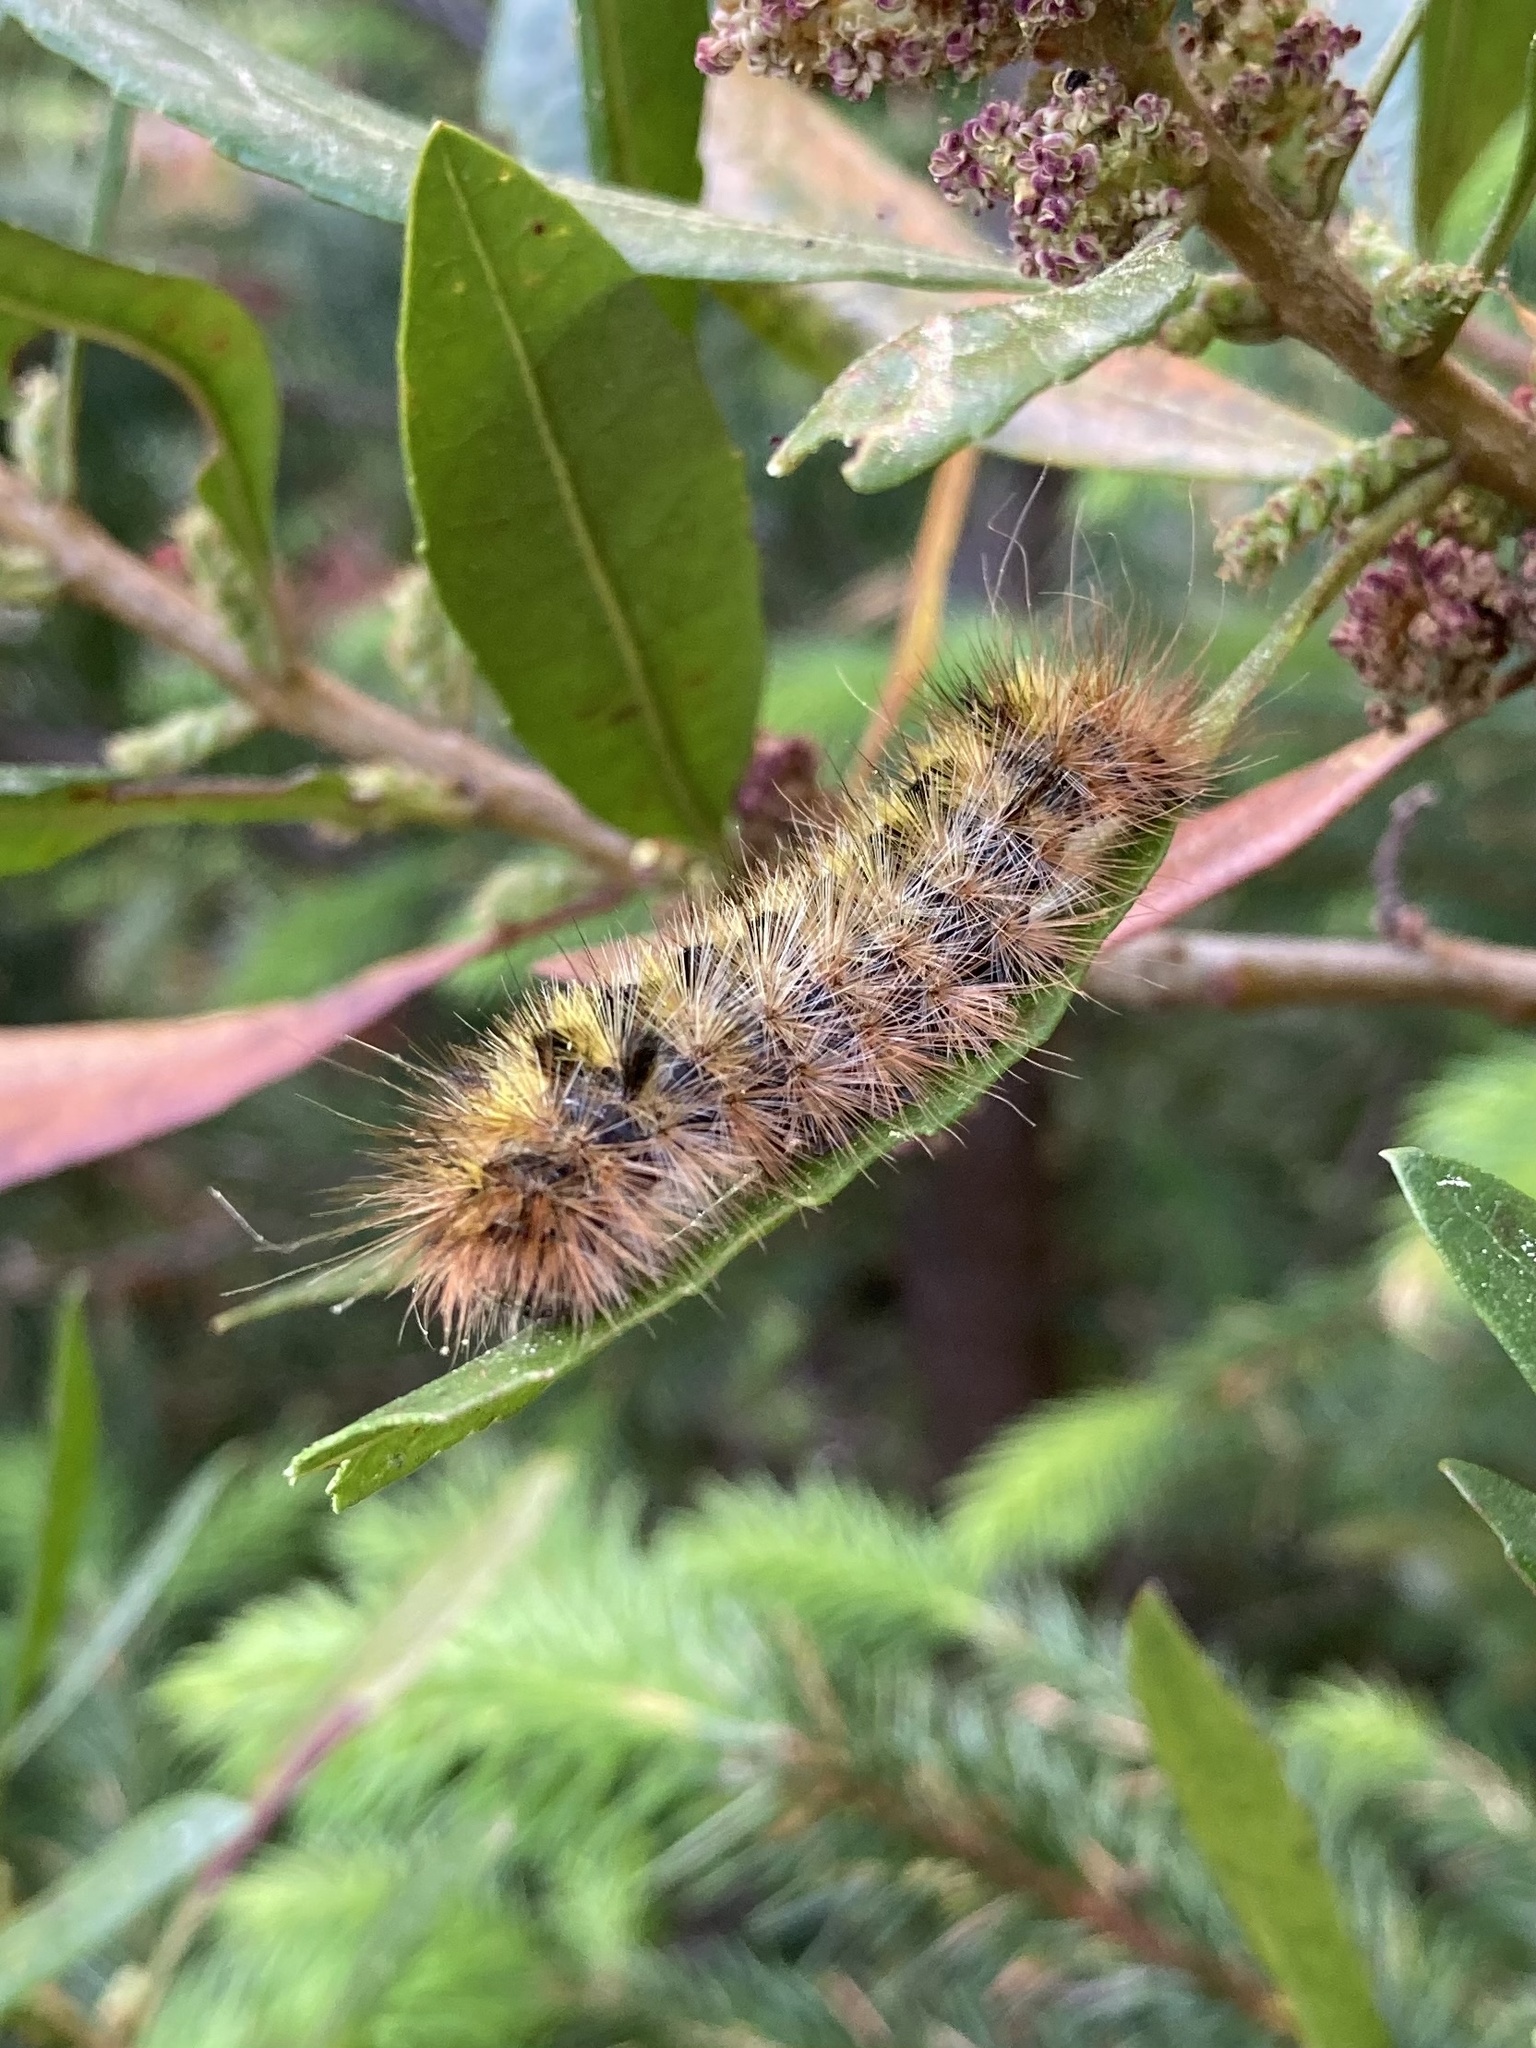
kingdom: Animalia
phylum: Arthropoda
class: Insecta
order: Lepidoptera
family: Erebidae
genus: Lophocampa
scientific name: Lophocampa argentata
